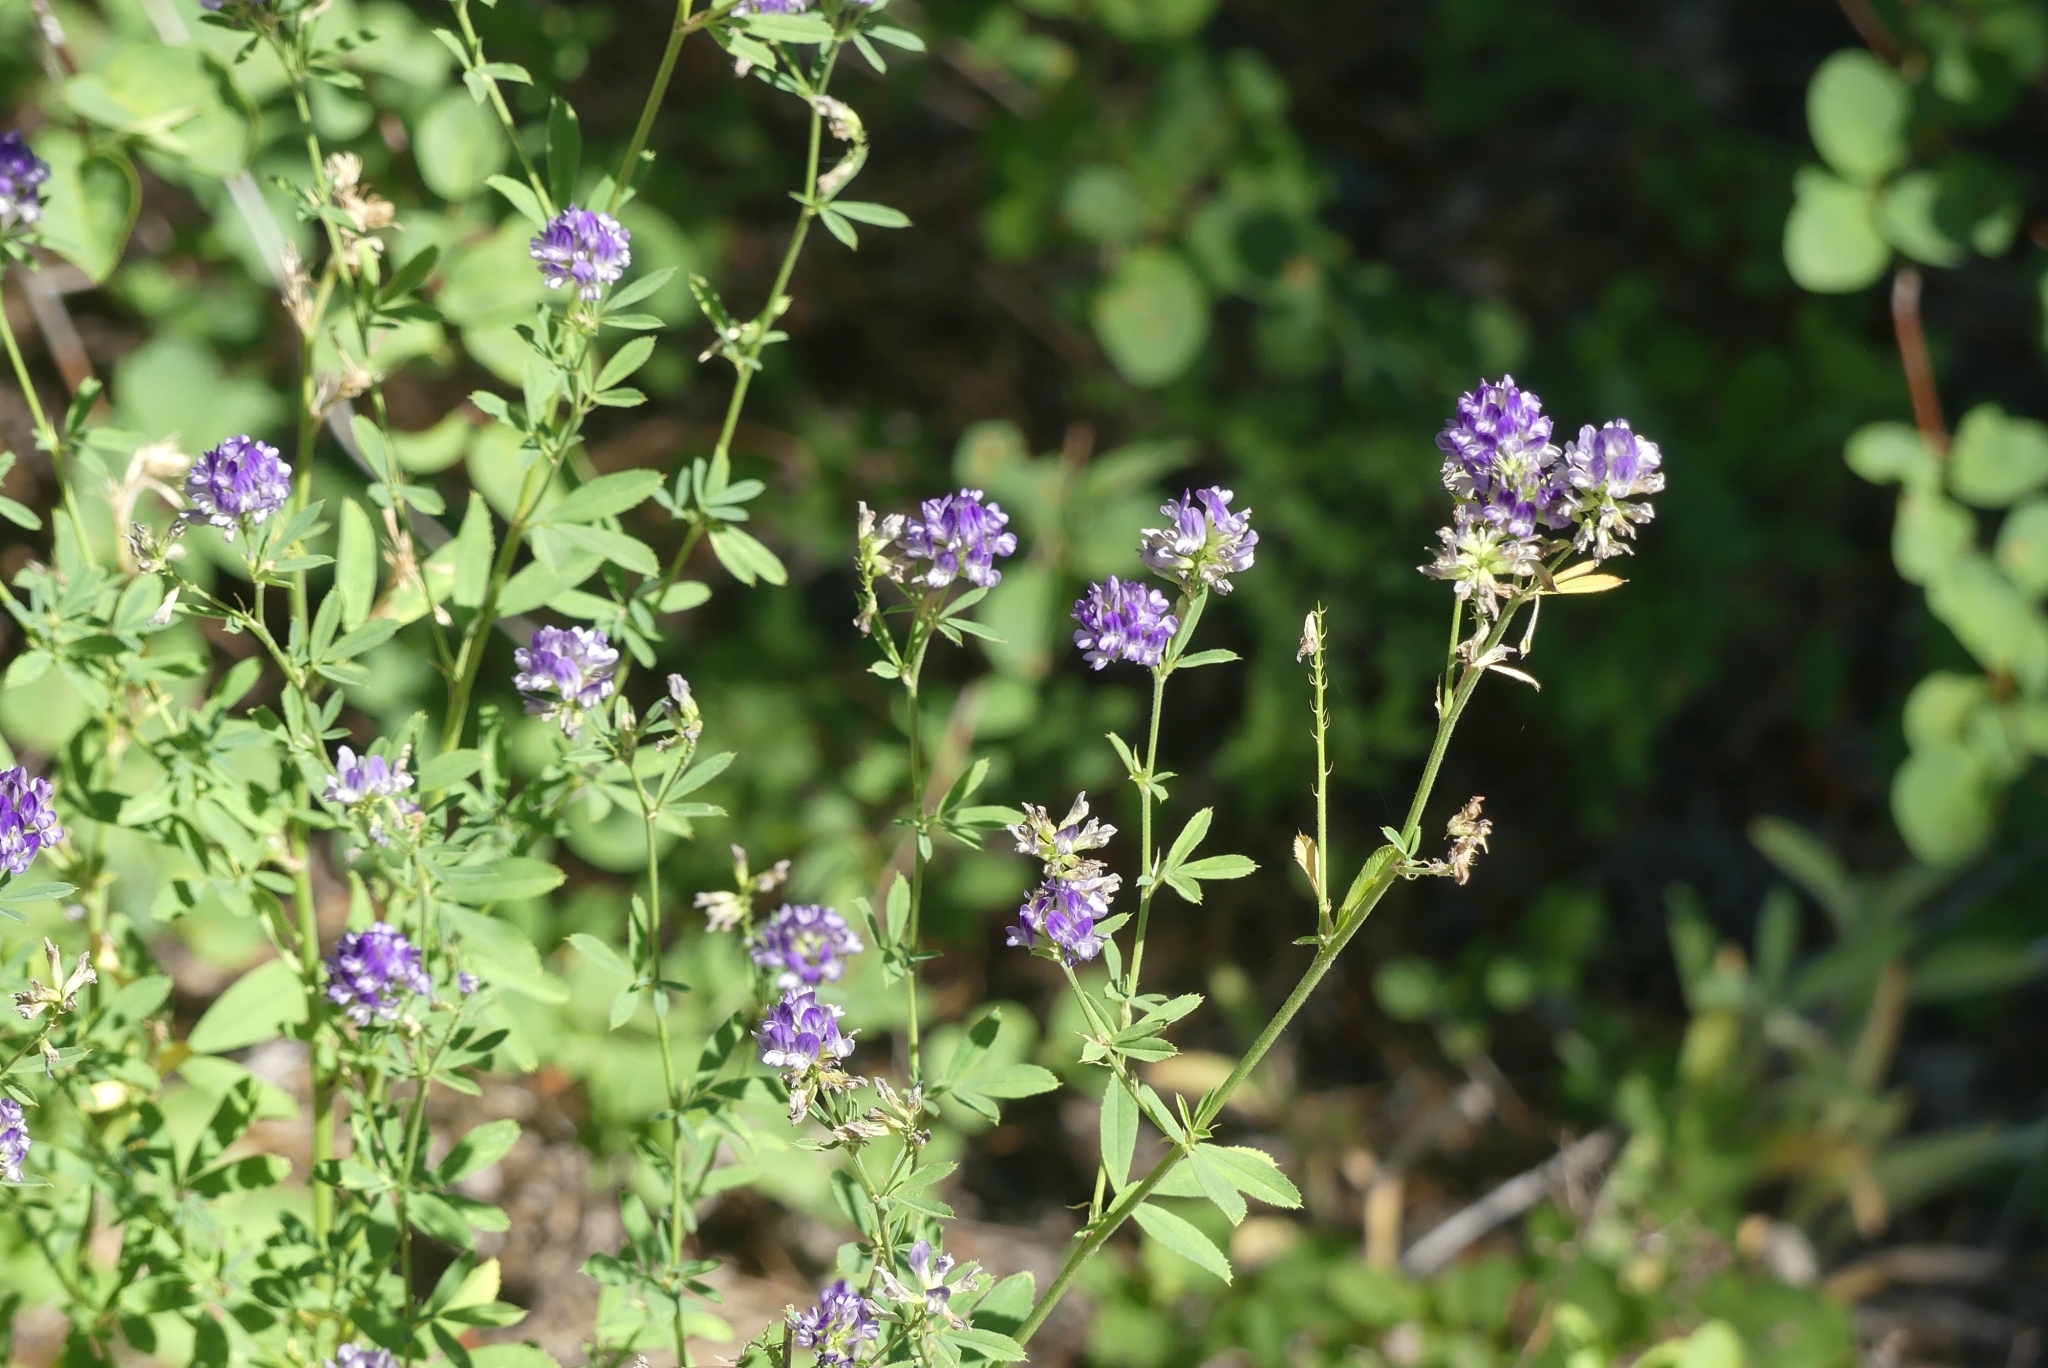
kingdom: Plantae
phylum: Tracheophyta
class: Magnoliopsida
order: Fabales
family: Fabaceae
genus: Medicago
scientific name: Medicago sativa
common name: Alfalfa
